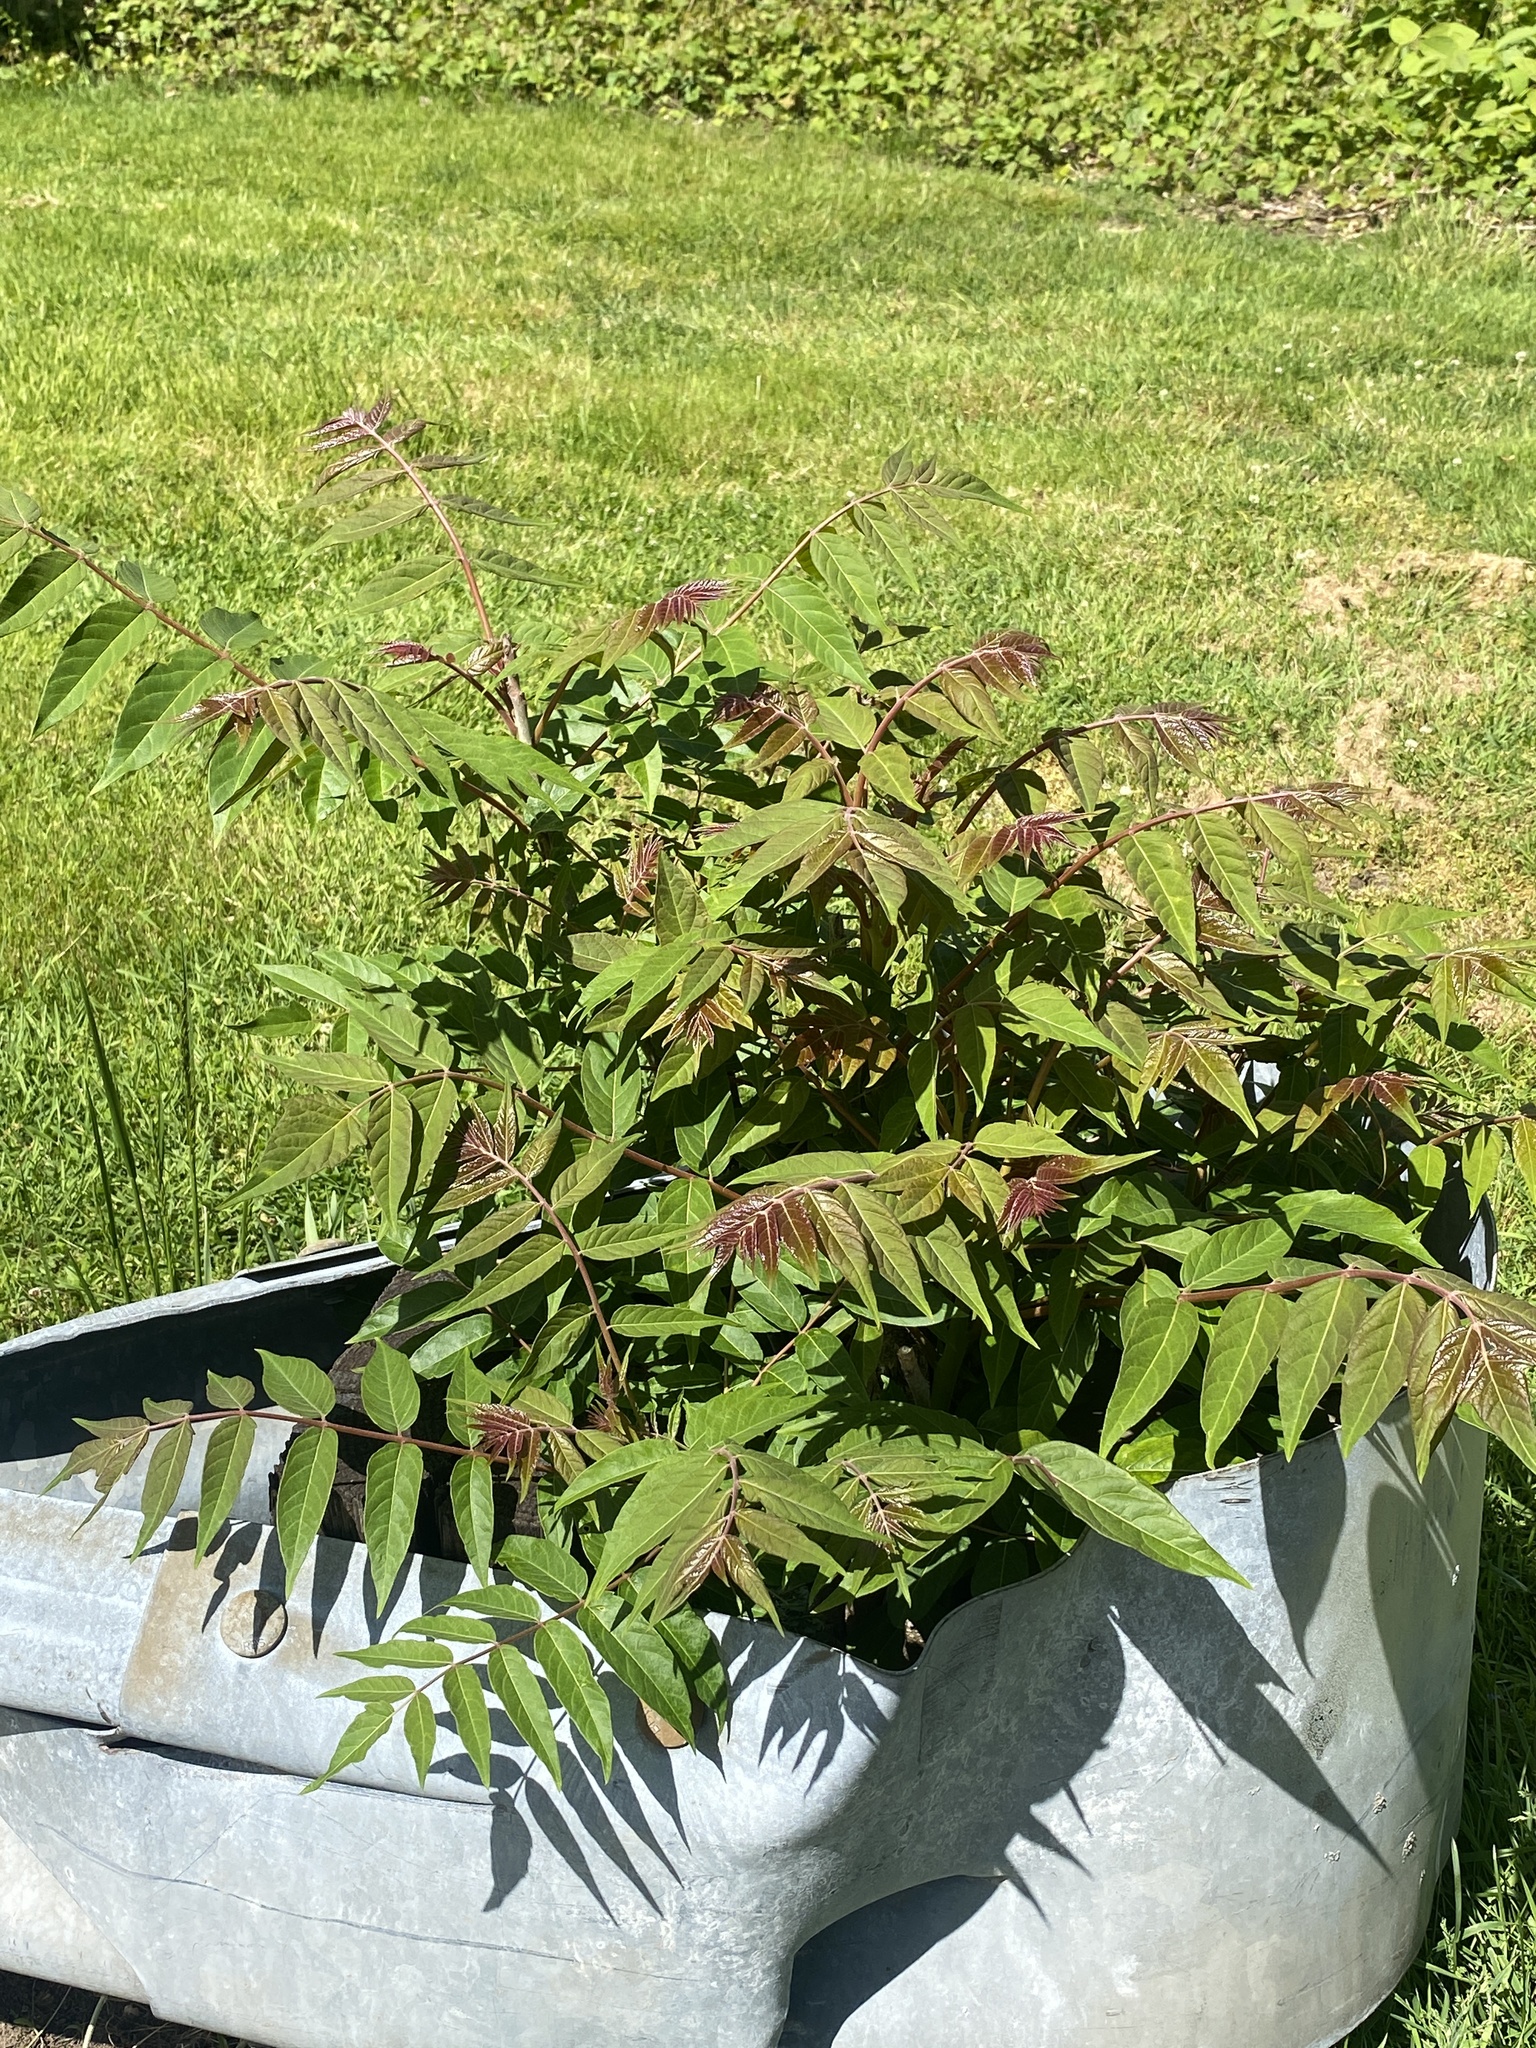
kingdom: Plantae
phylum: Tracheophyta
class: Magnoliopsida
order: Sapindales
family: Simaroubaceae
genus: Ailanthus
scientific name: Ailanthus altissima
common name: Tree-of-heaven
